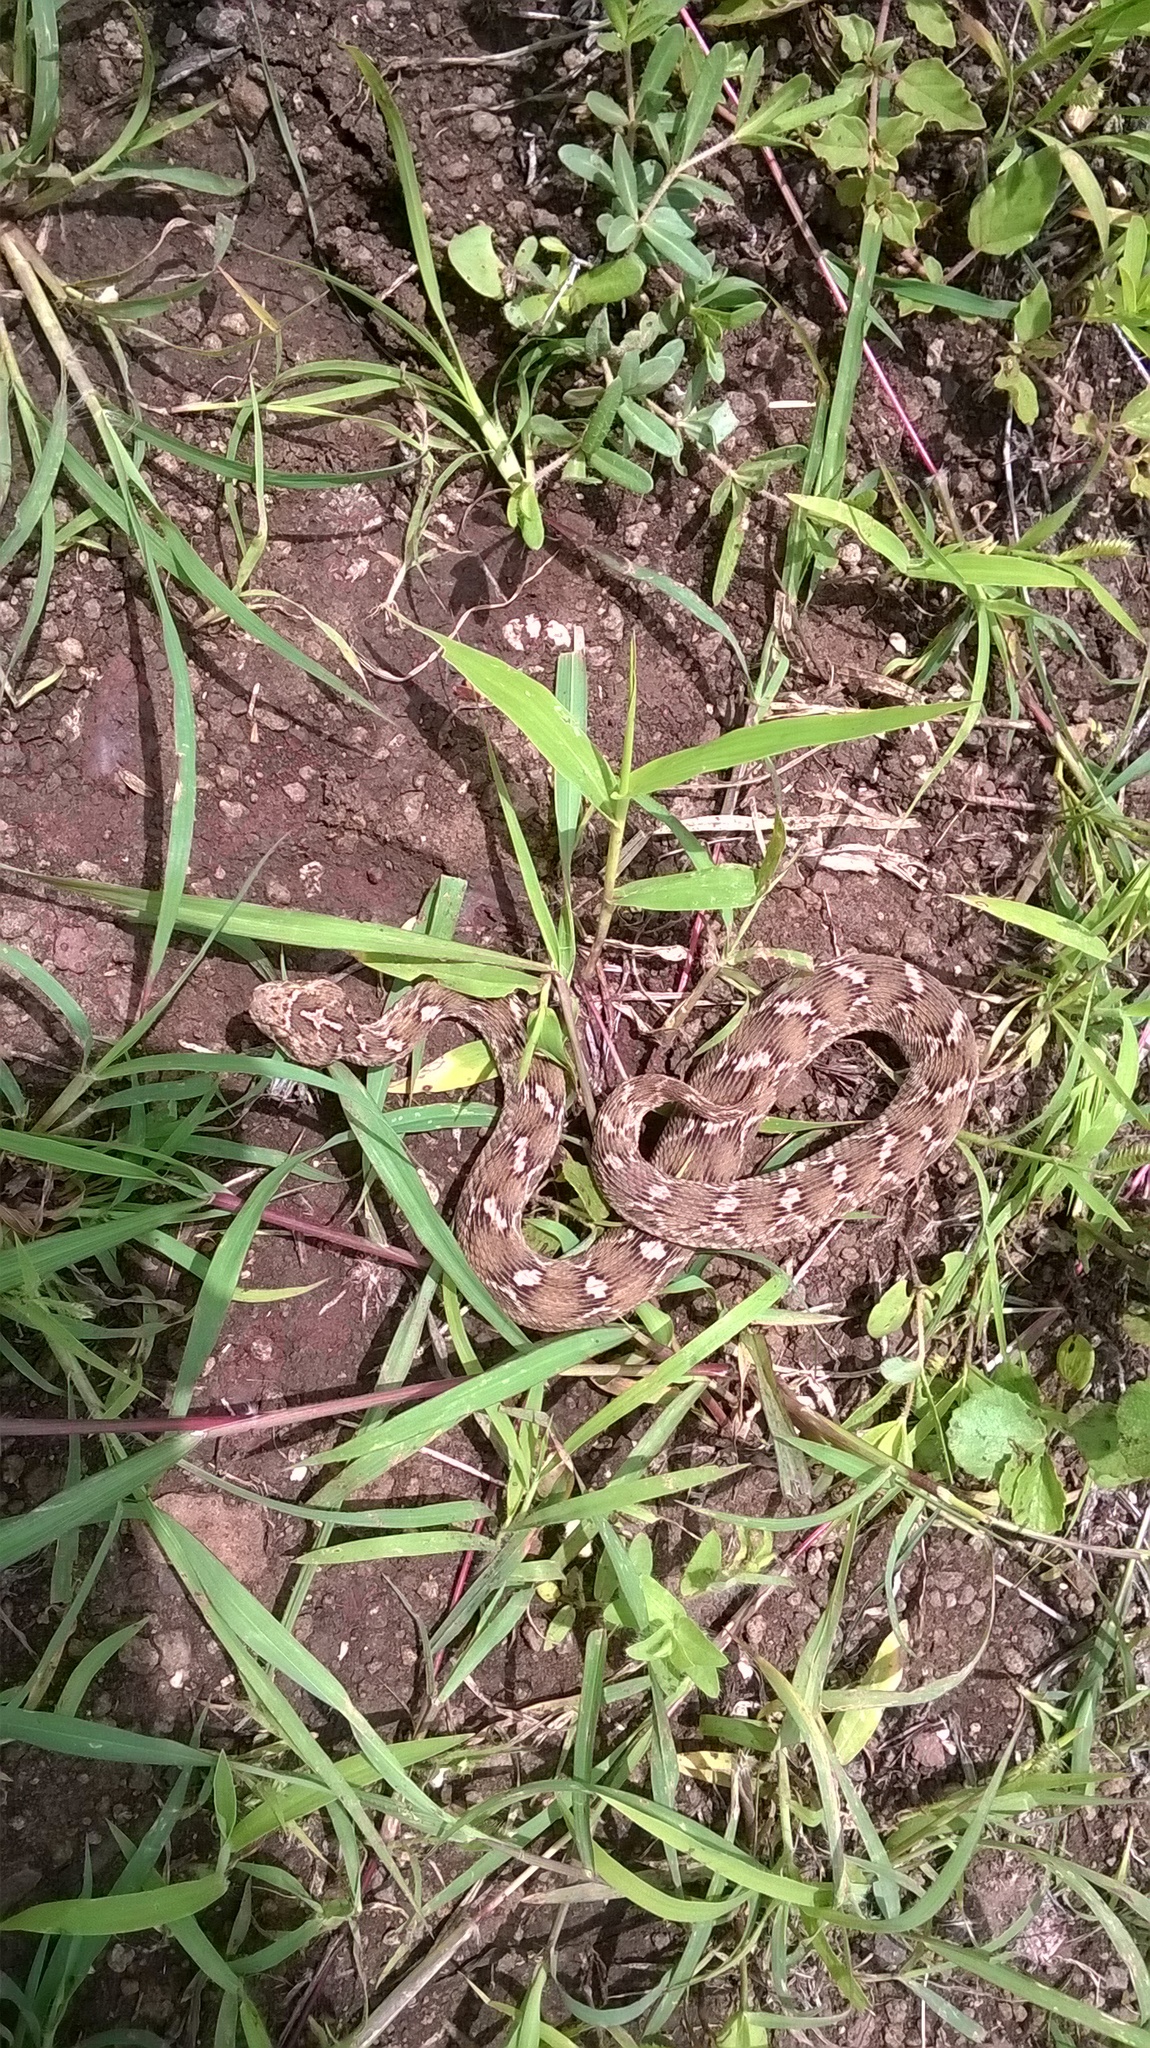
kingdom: Animalia
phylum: Chordata
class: Squamata
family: Viperidae
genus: Echis
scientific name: Echis carinatus
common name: Saw-scaled viper
